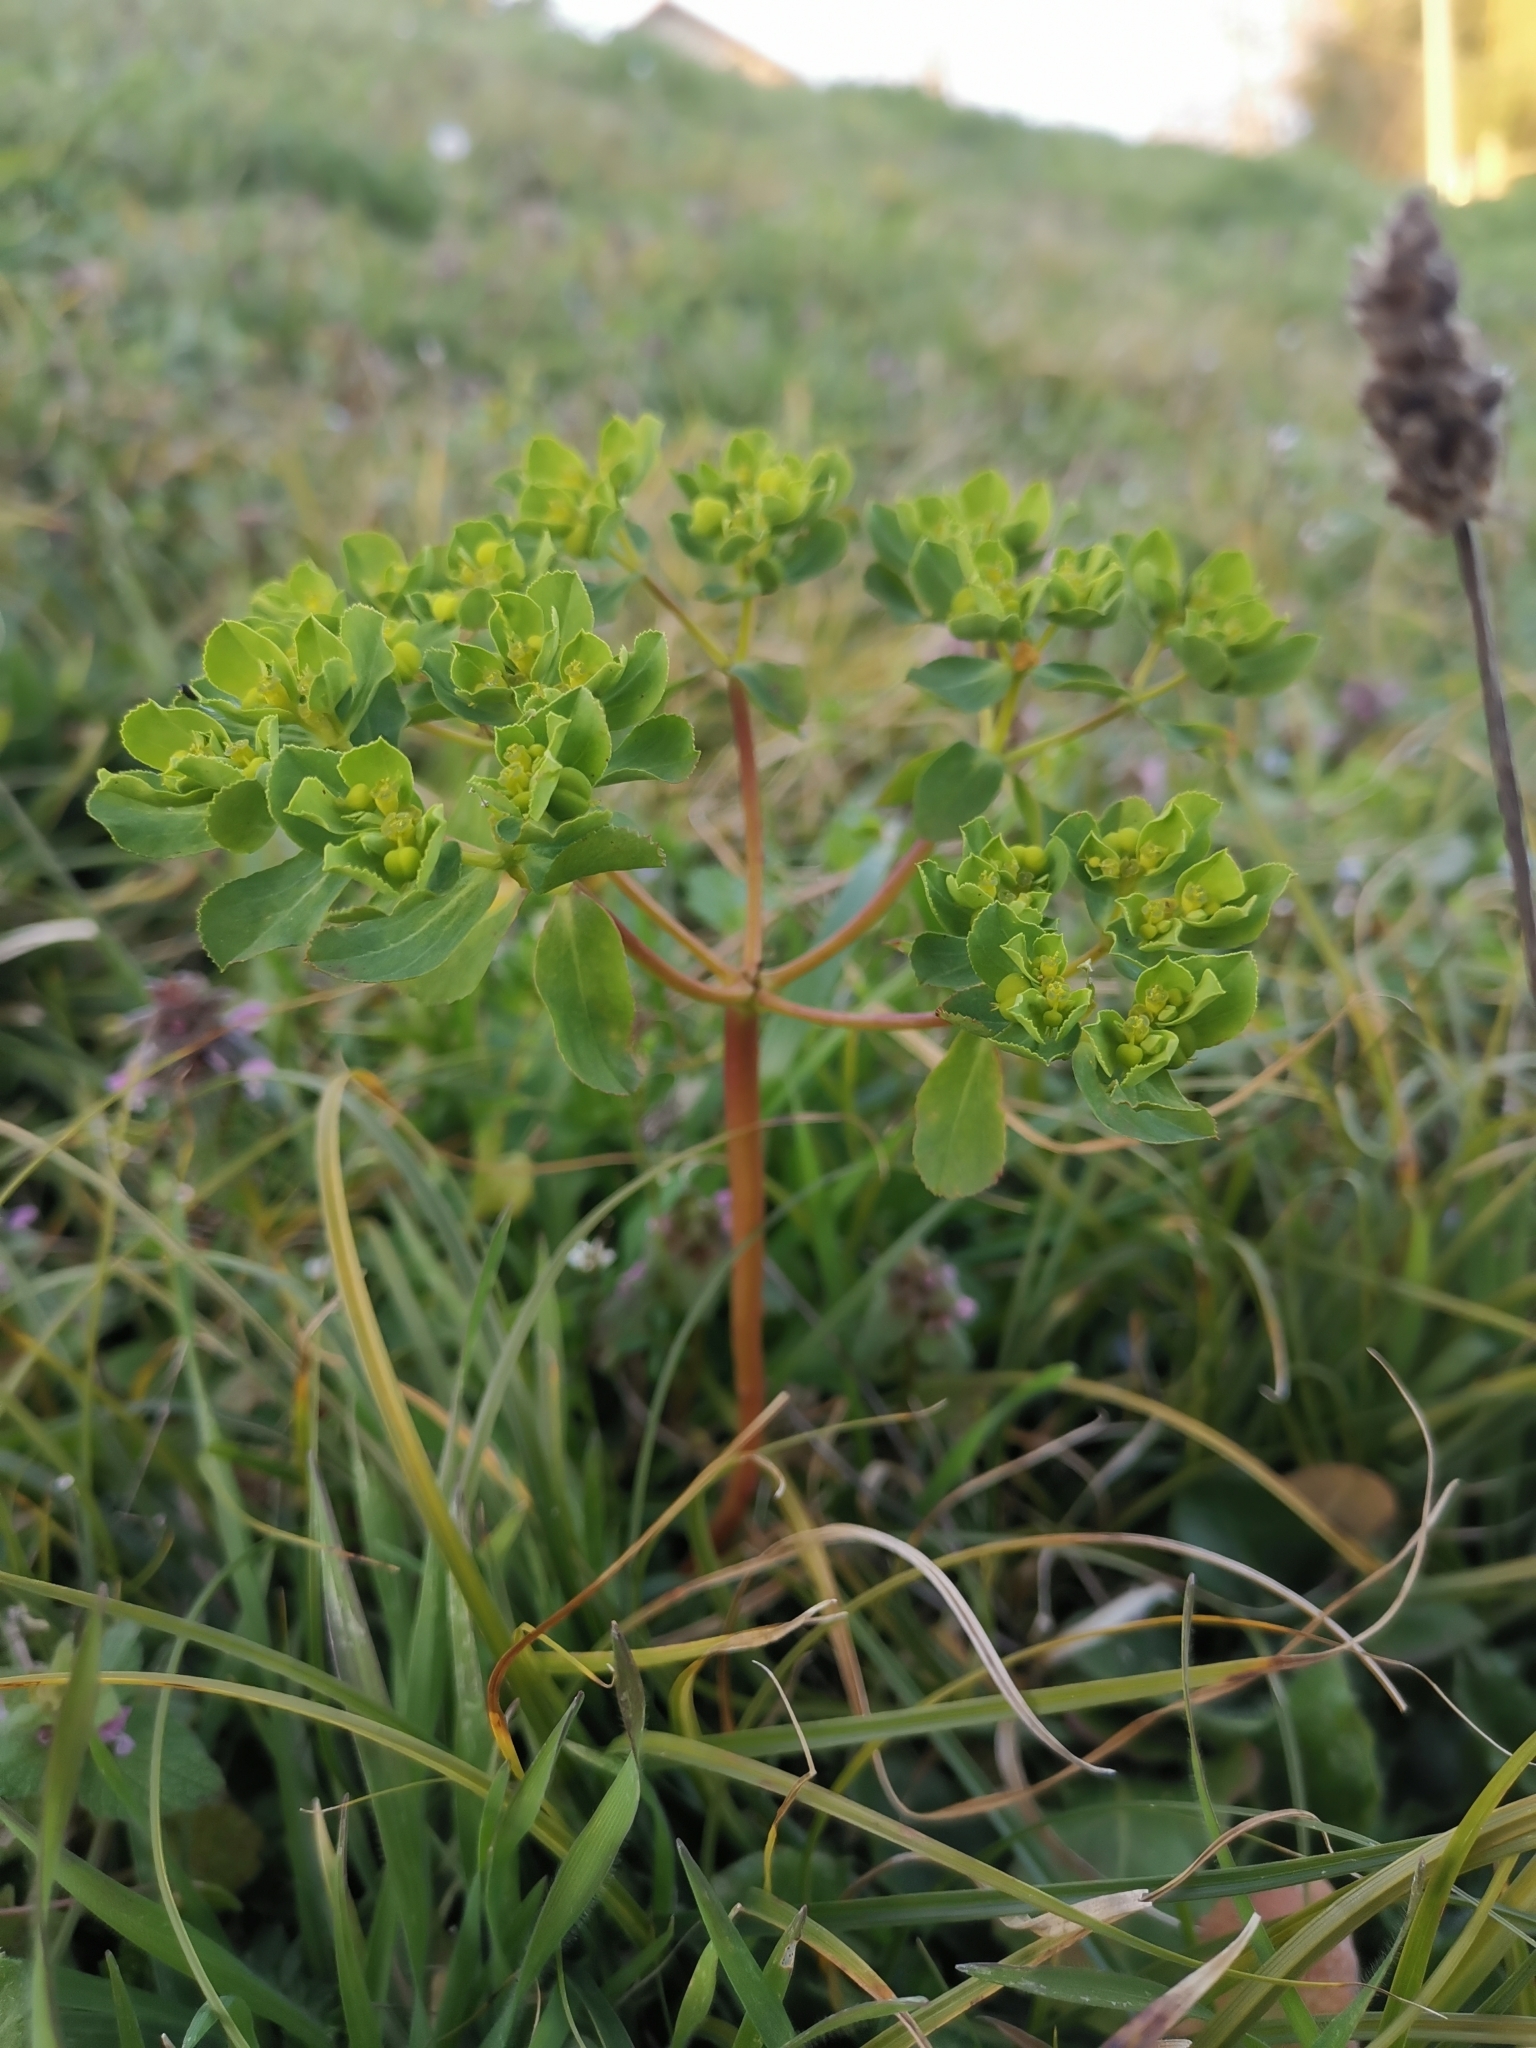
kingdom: Plantae
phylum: Tracheophyta
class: Magnoliopsida
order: Malpighiales
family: Euphorbiaceae
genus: Euphorbia
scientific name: Euphorbia helioscopia
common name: Sun spurge
